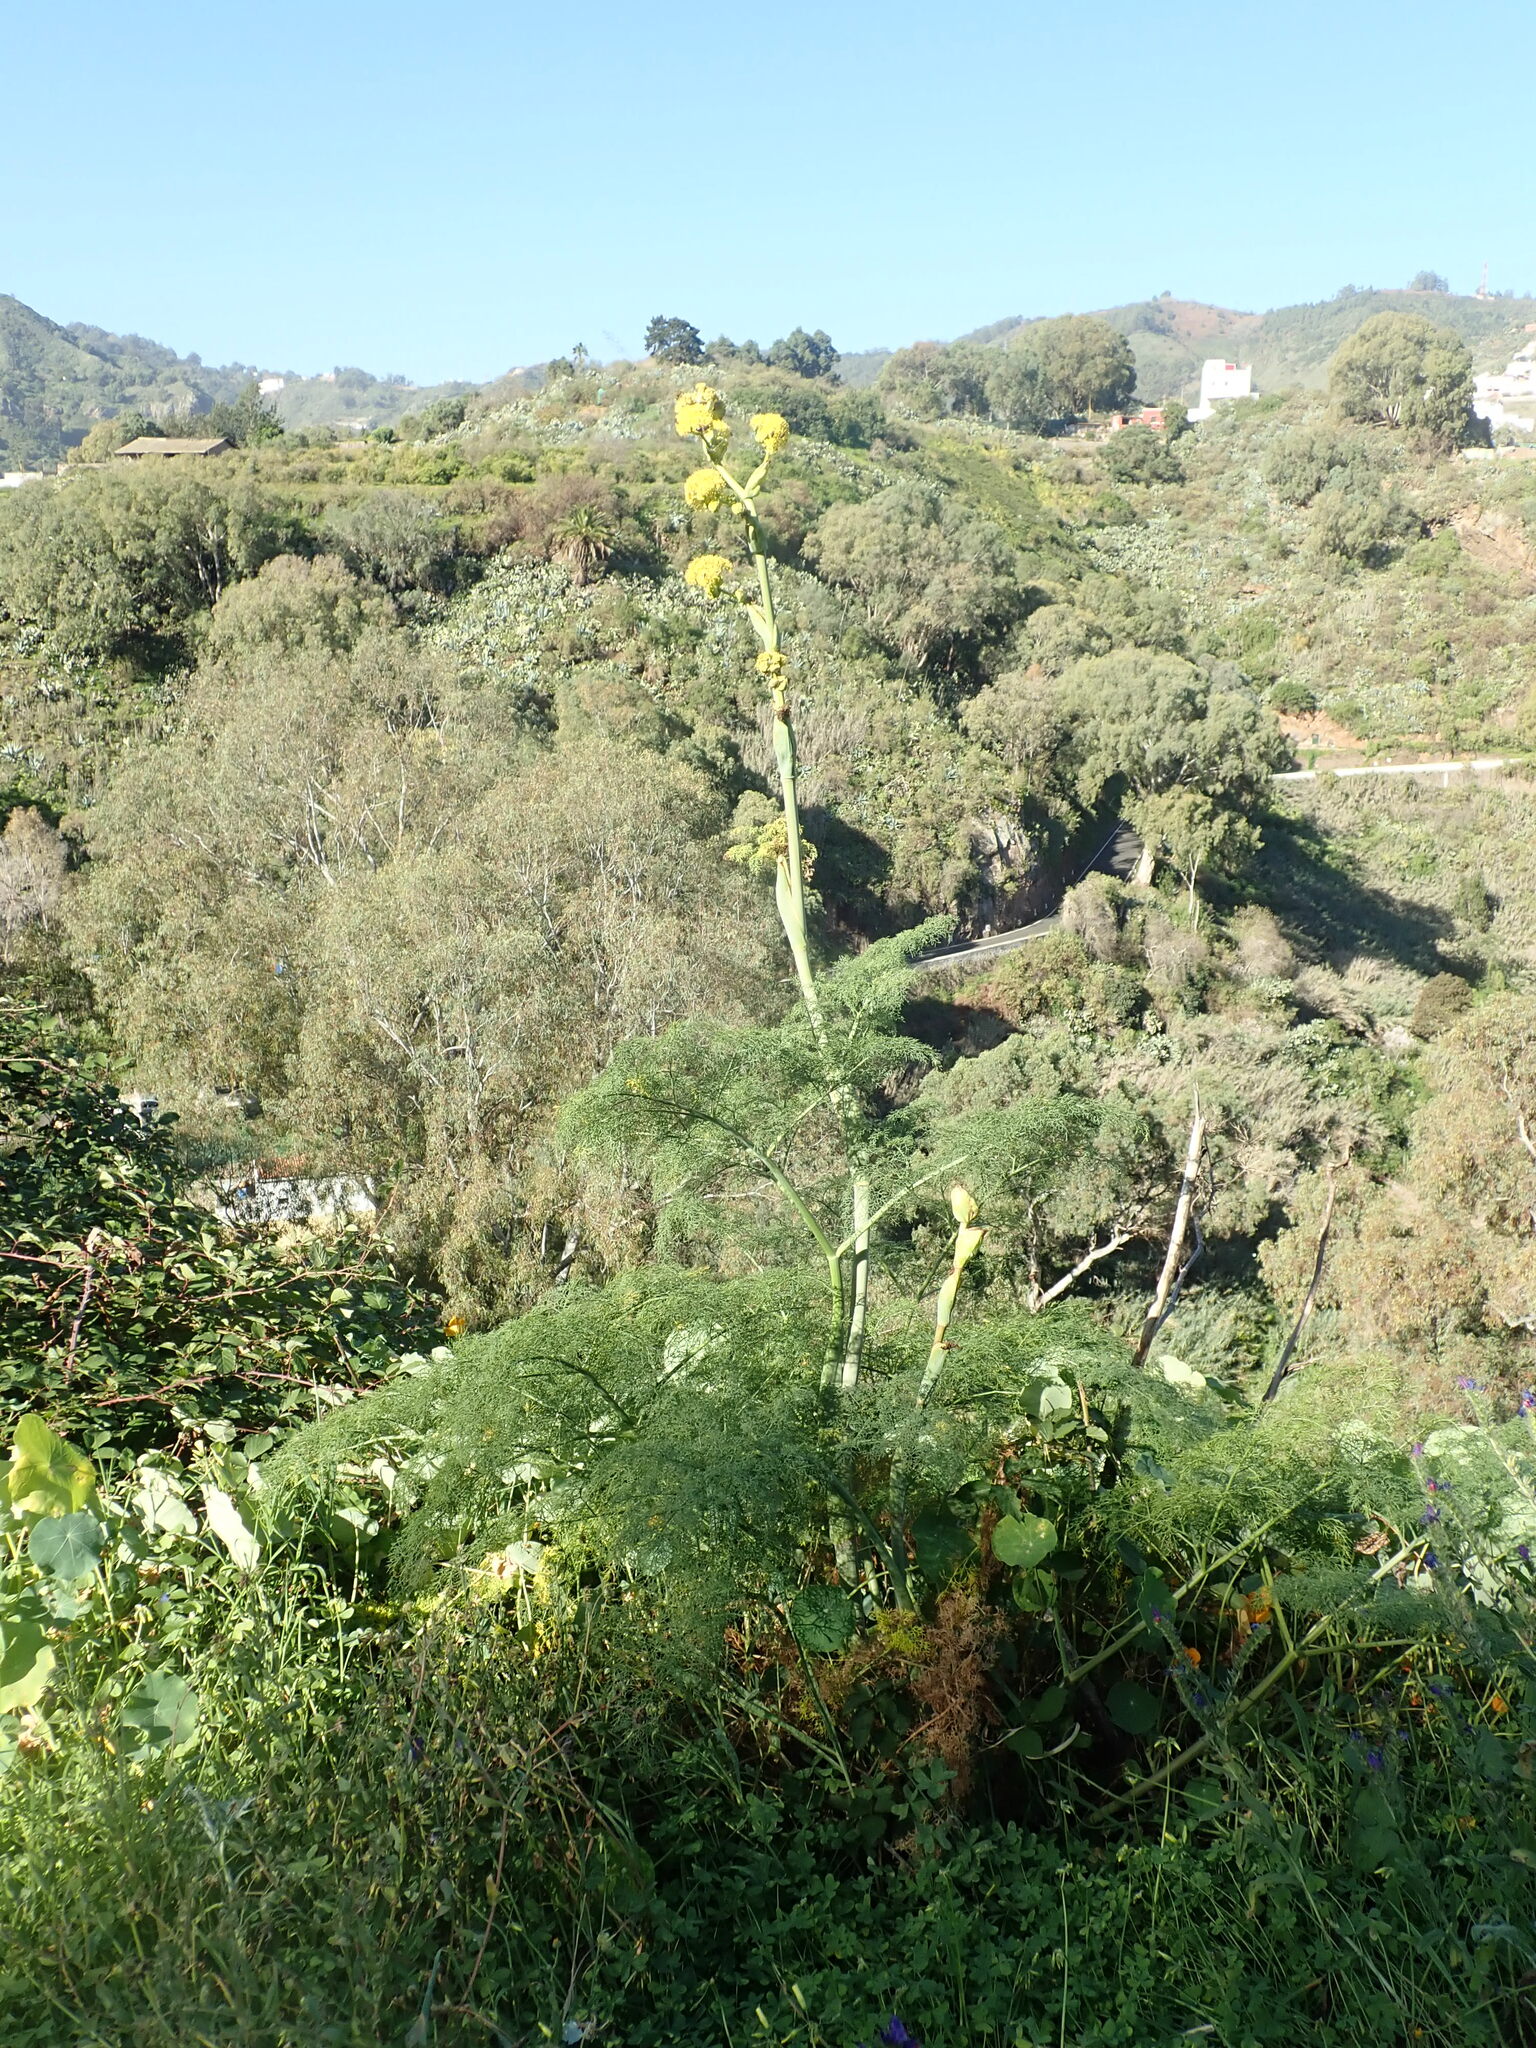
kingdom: Plantae
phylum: Tracheophyta
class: Magnoliopsida
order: Apiales
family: Apiaceae
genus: Ferula
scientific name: Ferula communis
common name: Giant fennel
